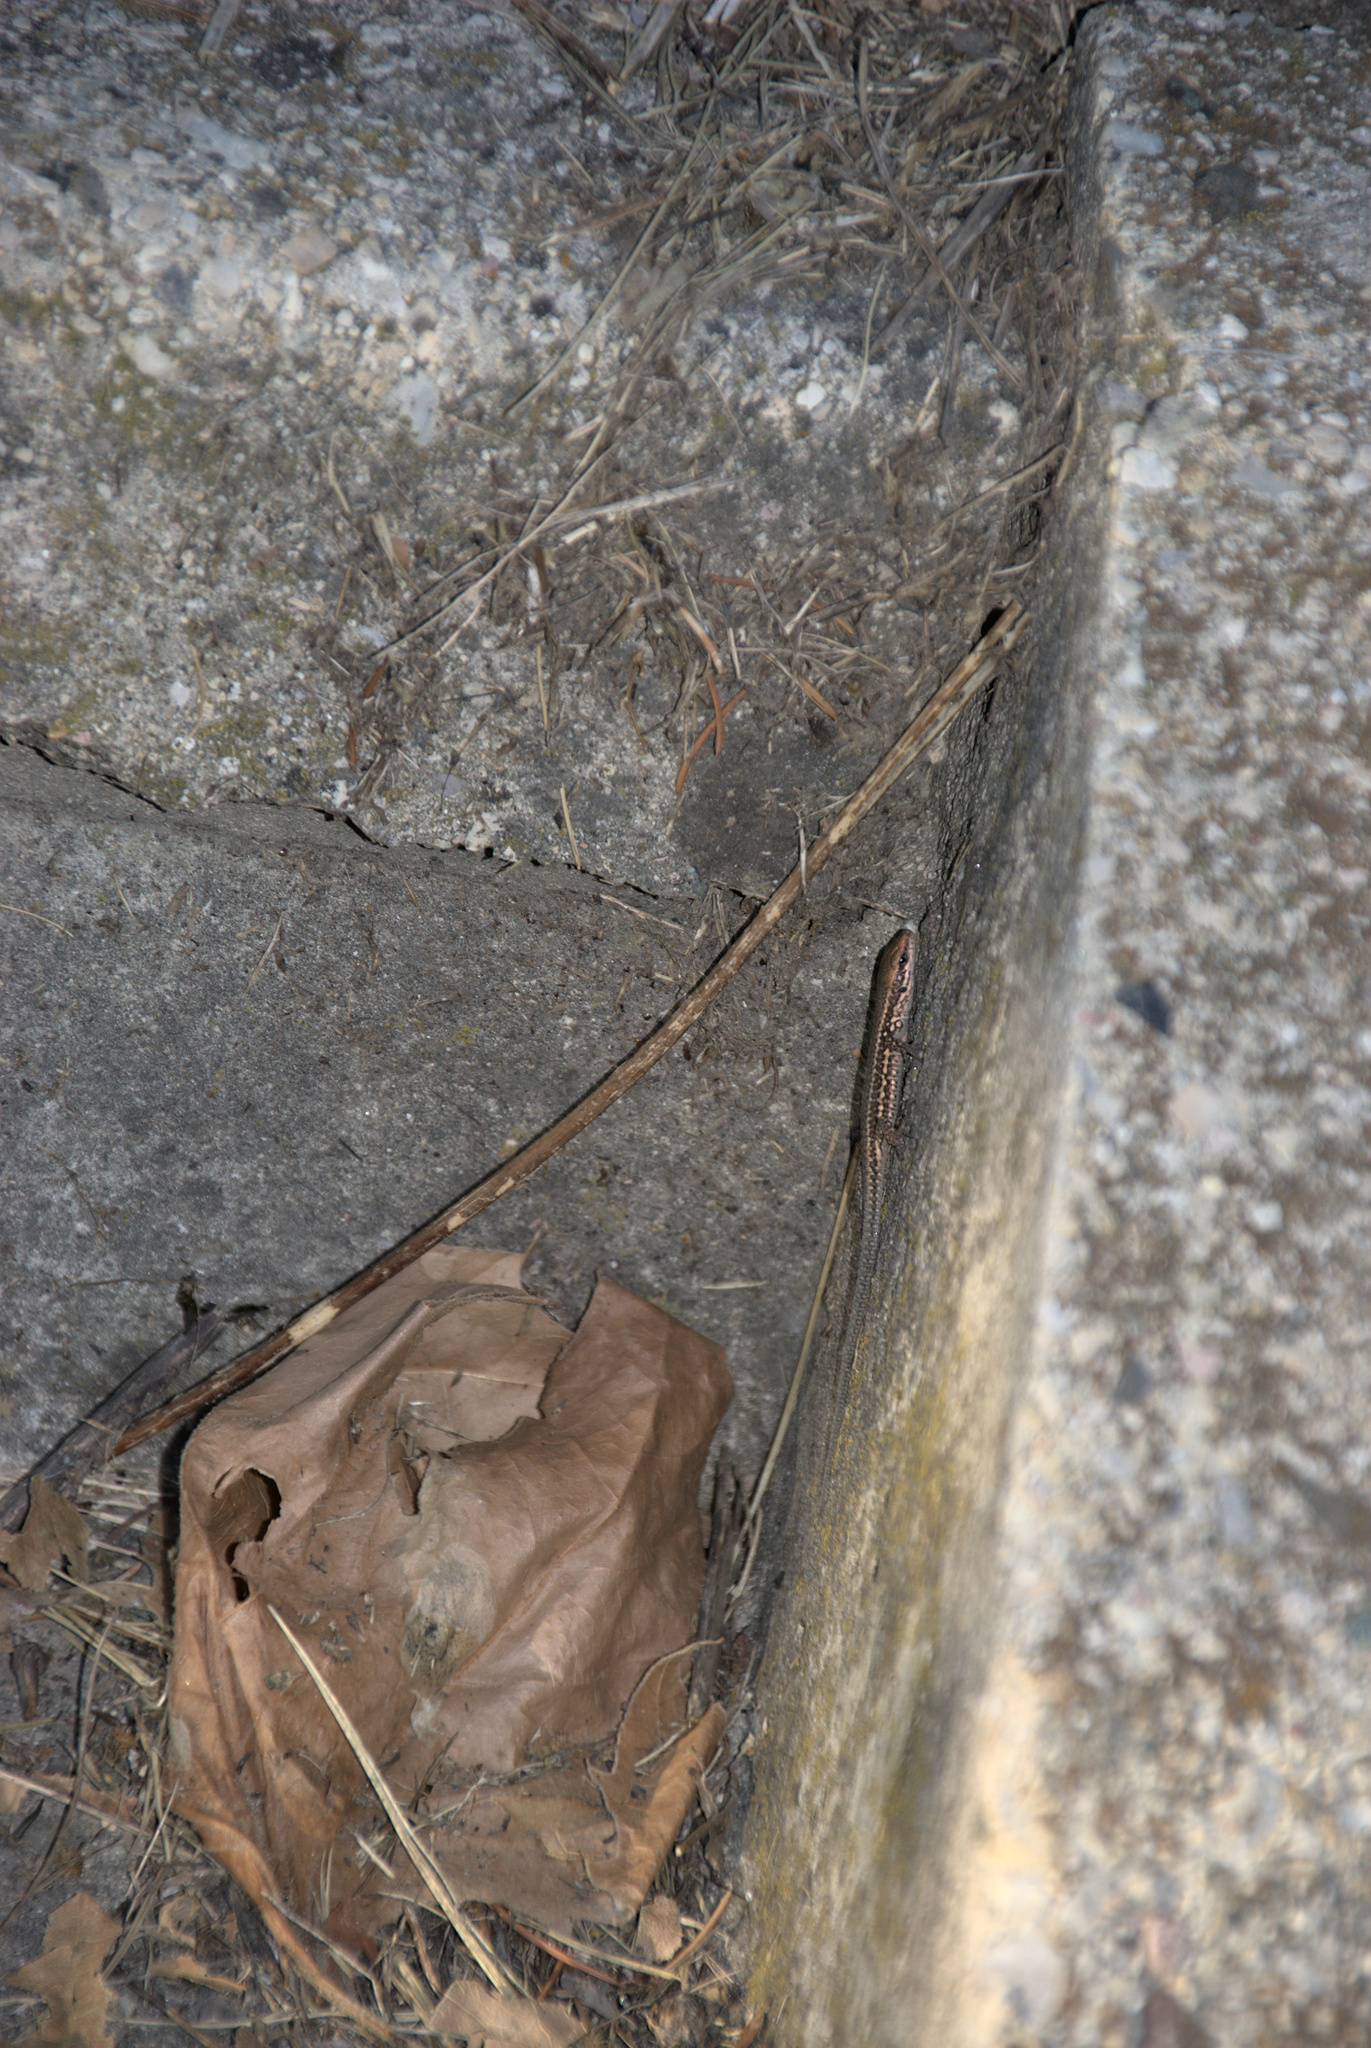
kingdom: Animalia
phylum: Chordata
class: Squamata
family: Lacertidae
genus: Podarcis
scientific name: Podarcis muralis
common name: Common wall lizard
